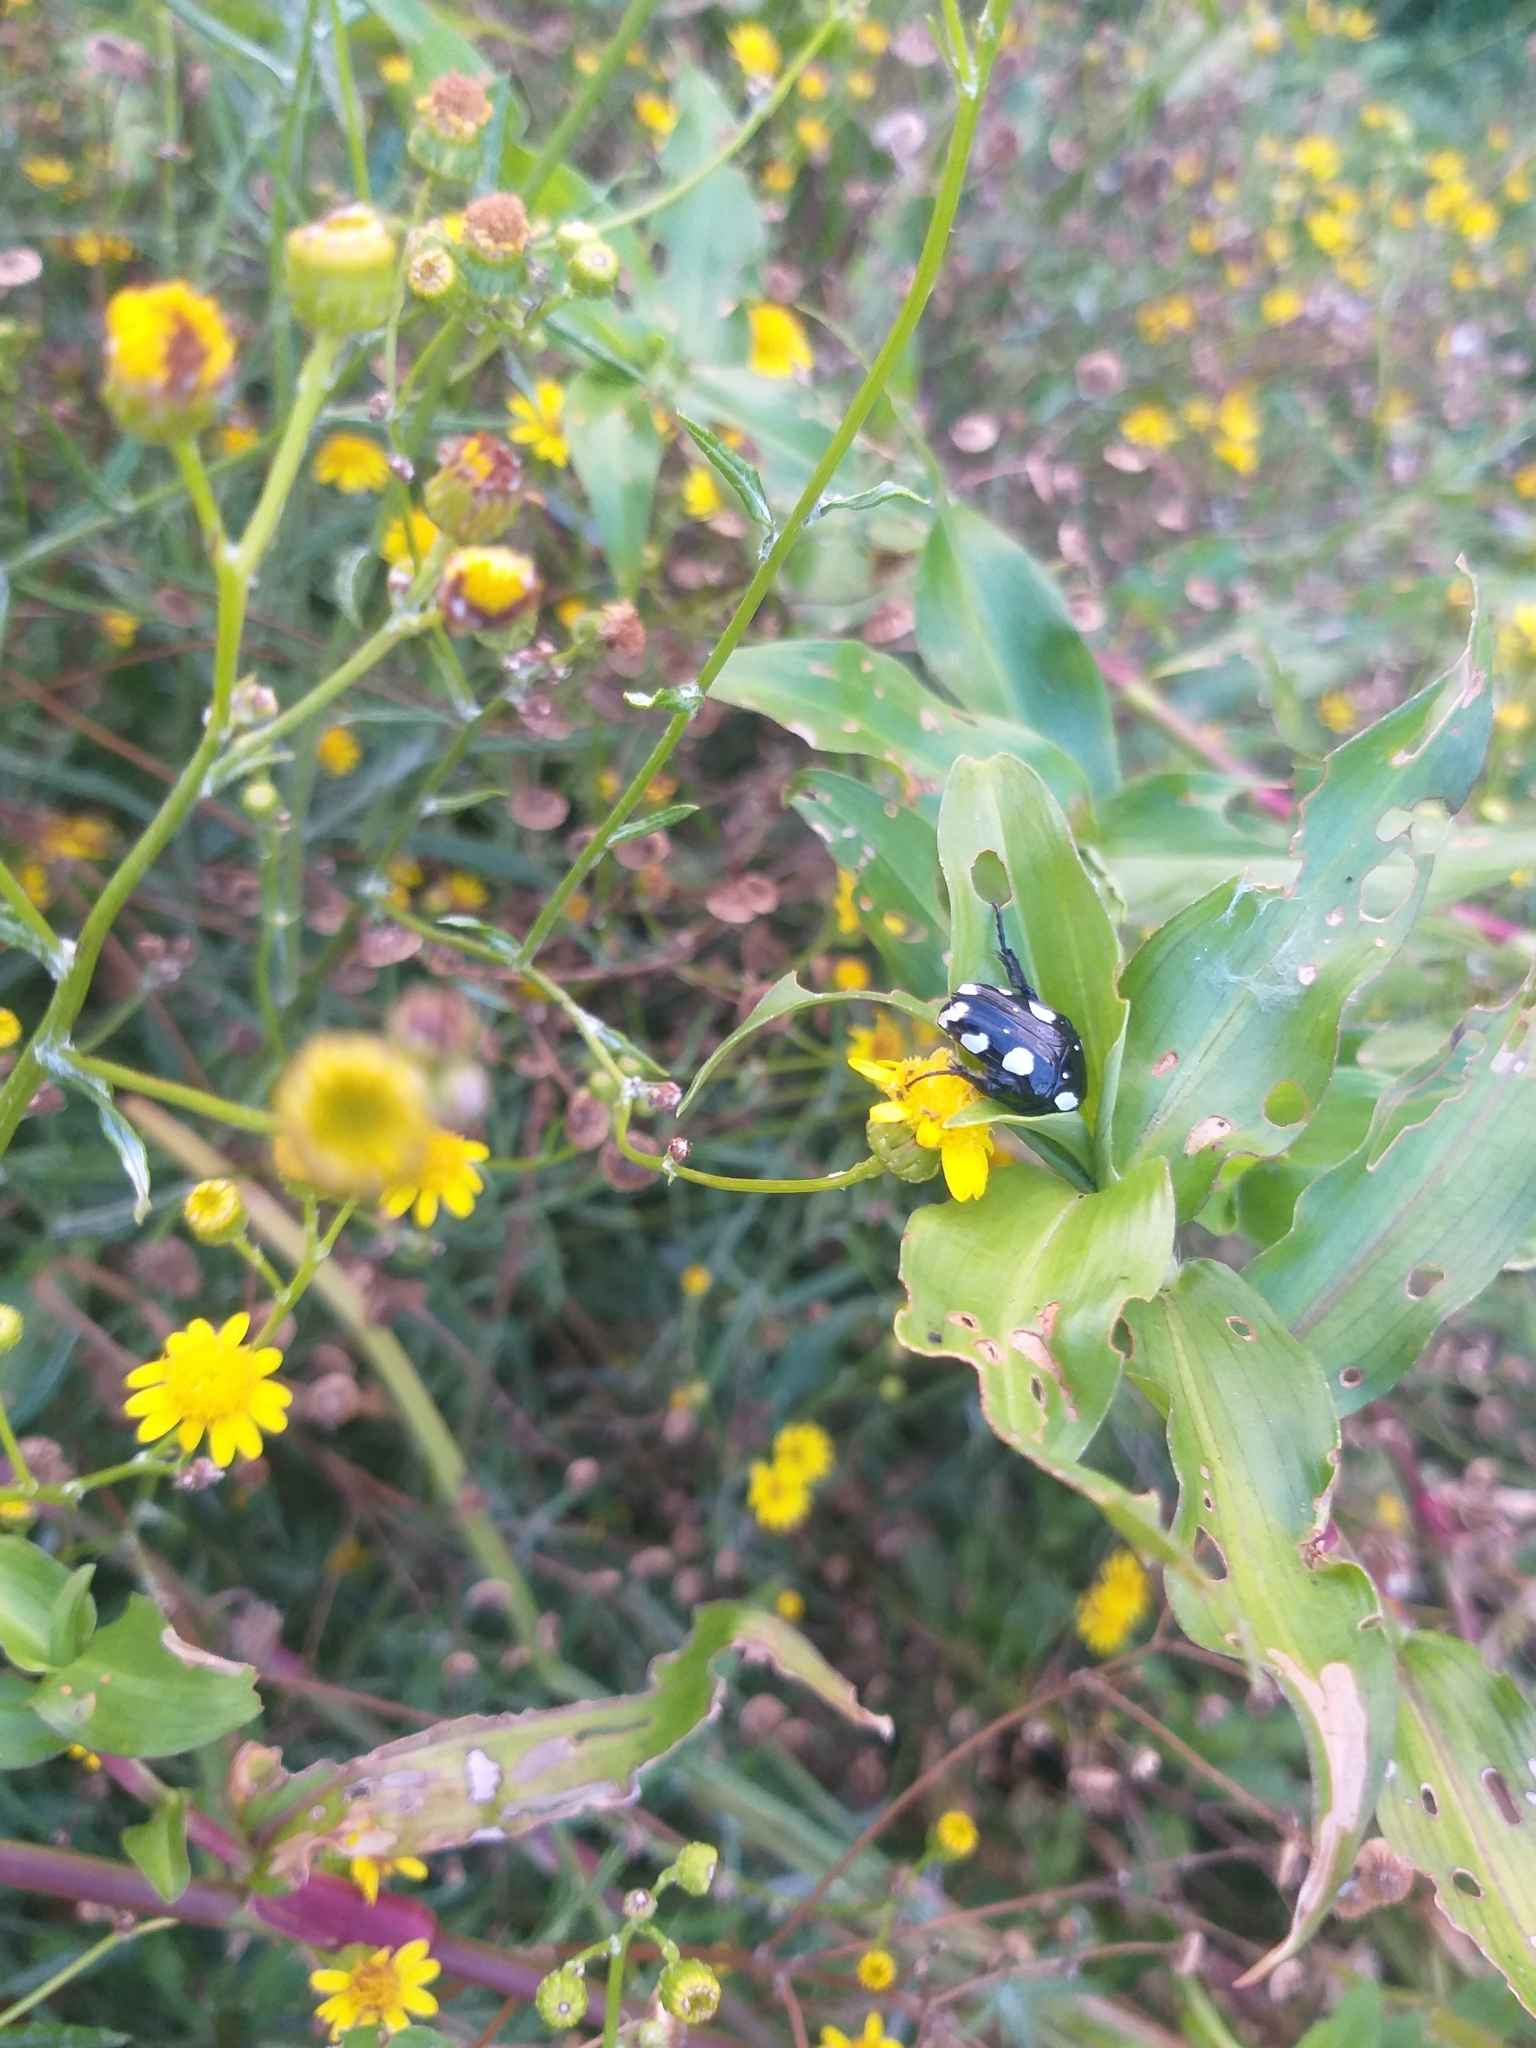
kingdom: Animalia
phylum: Arthropoda
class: Insecta
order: Coleoptera
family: Scarabaeidae
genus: Mausoleopsis
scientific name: Mausoleopsis amabilis
